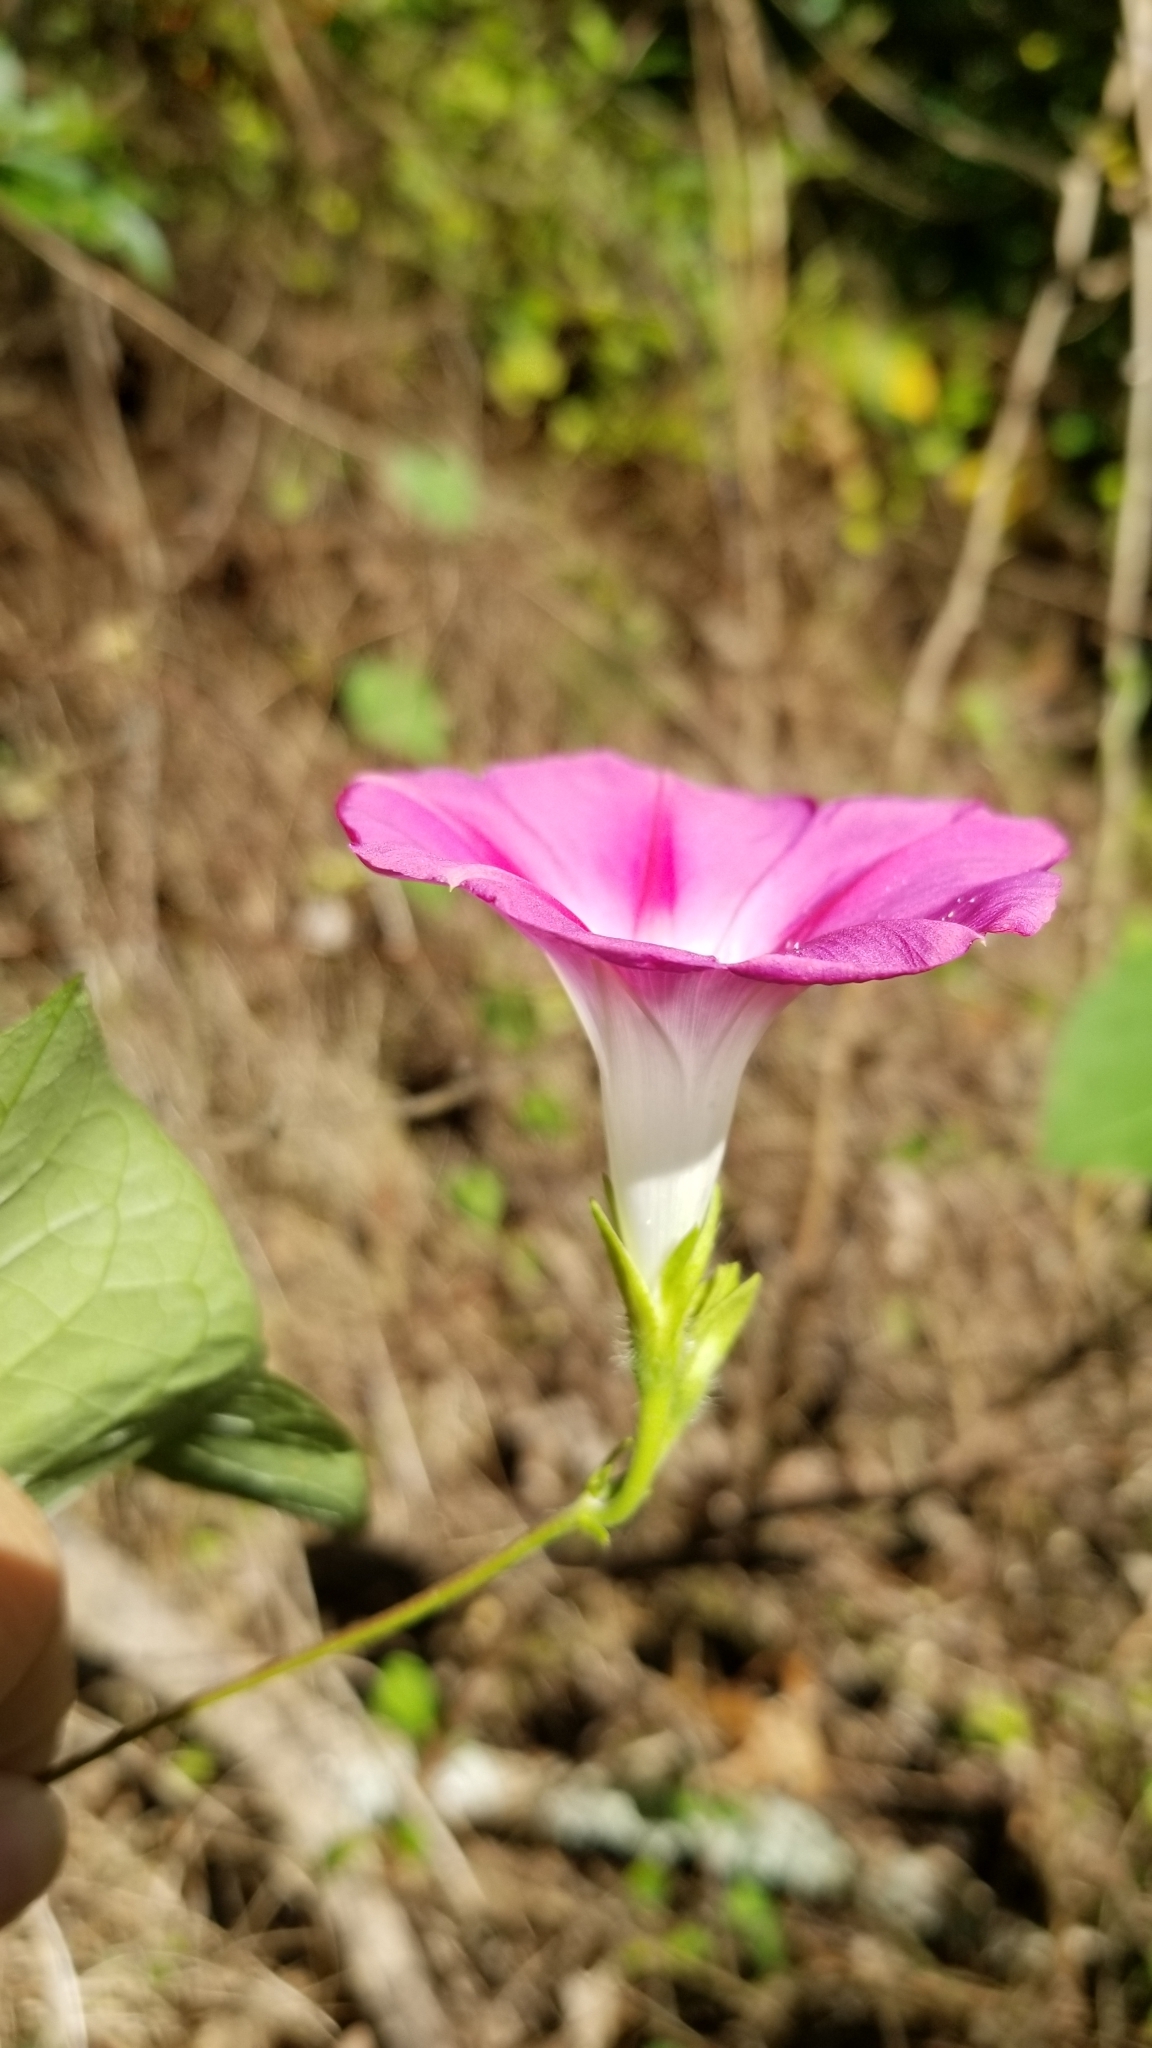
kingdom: Plantae
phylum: Tracheophyta
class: Magnoliopsida
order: Solanales
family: Convolvulaceae
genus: Ipomoea
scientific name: Ipomoea purpurea
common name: Common morning-glory
